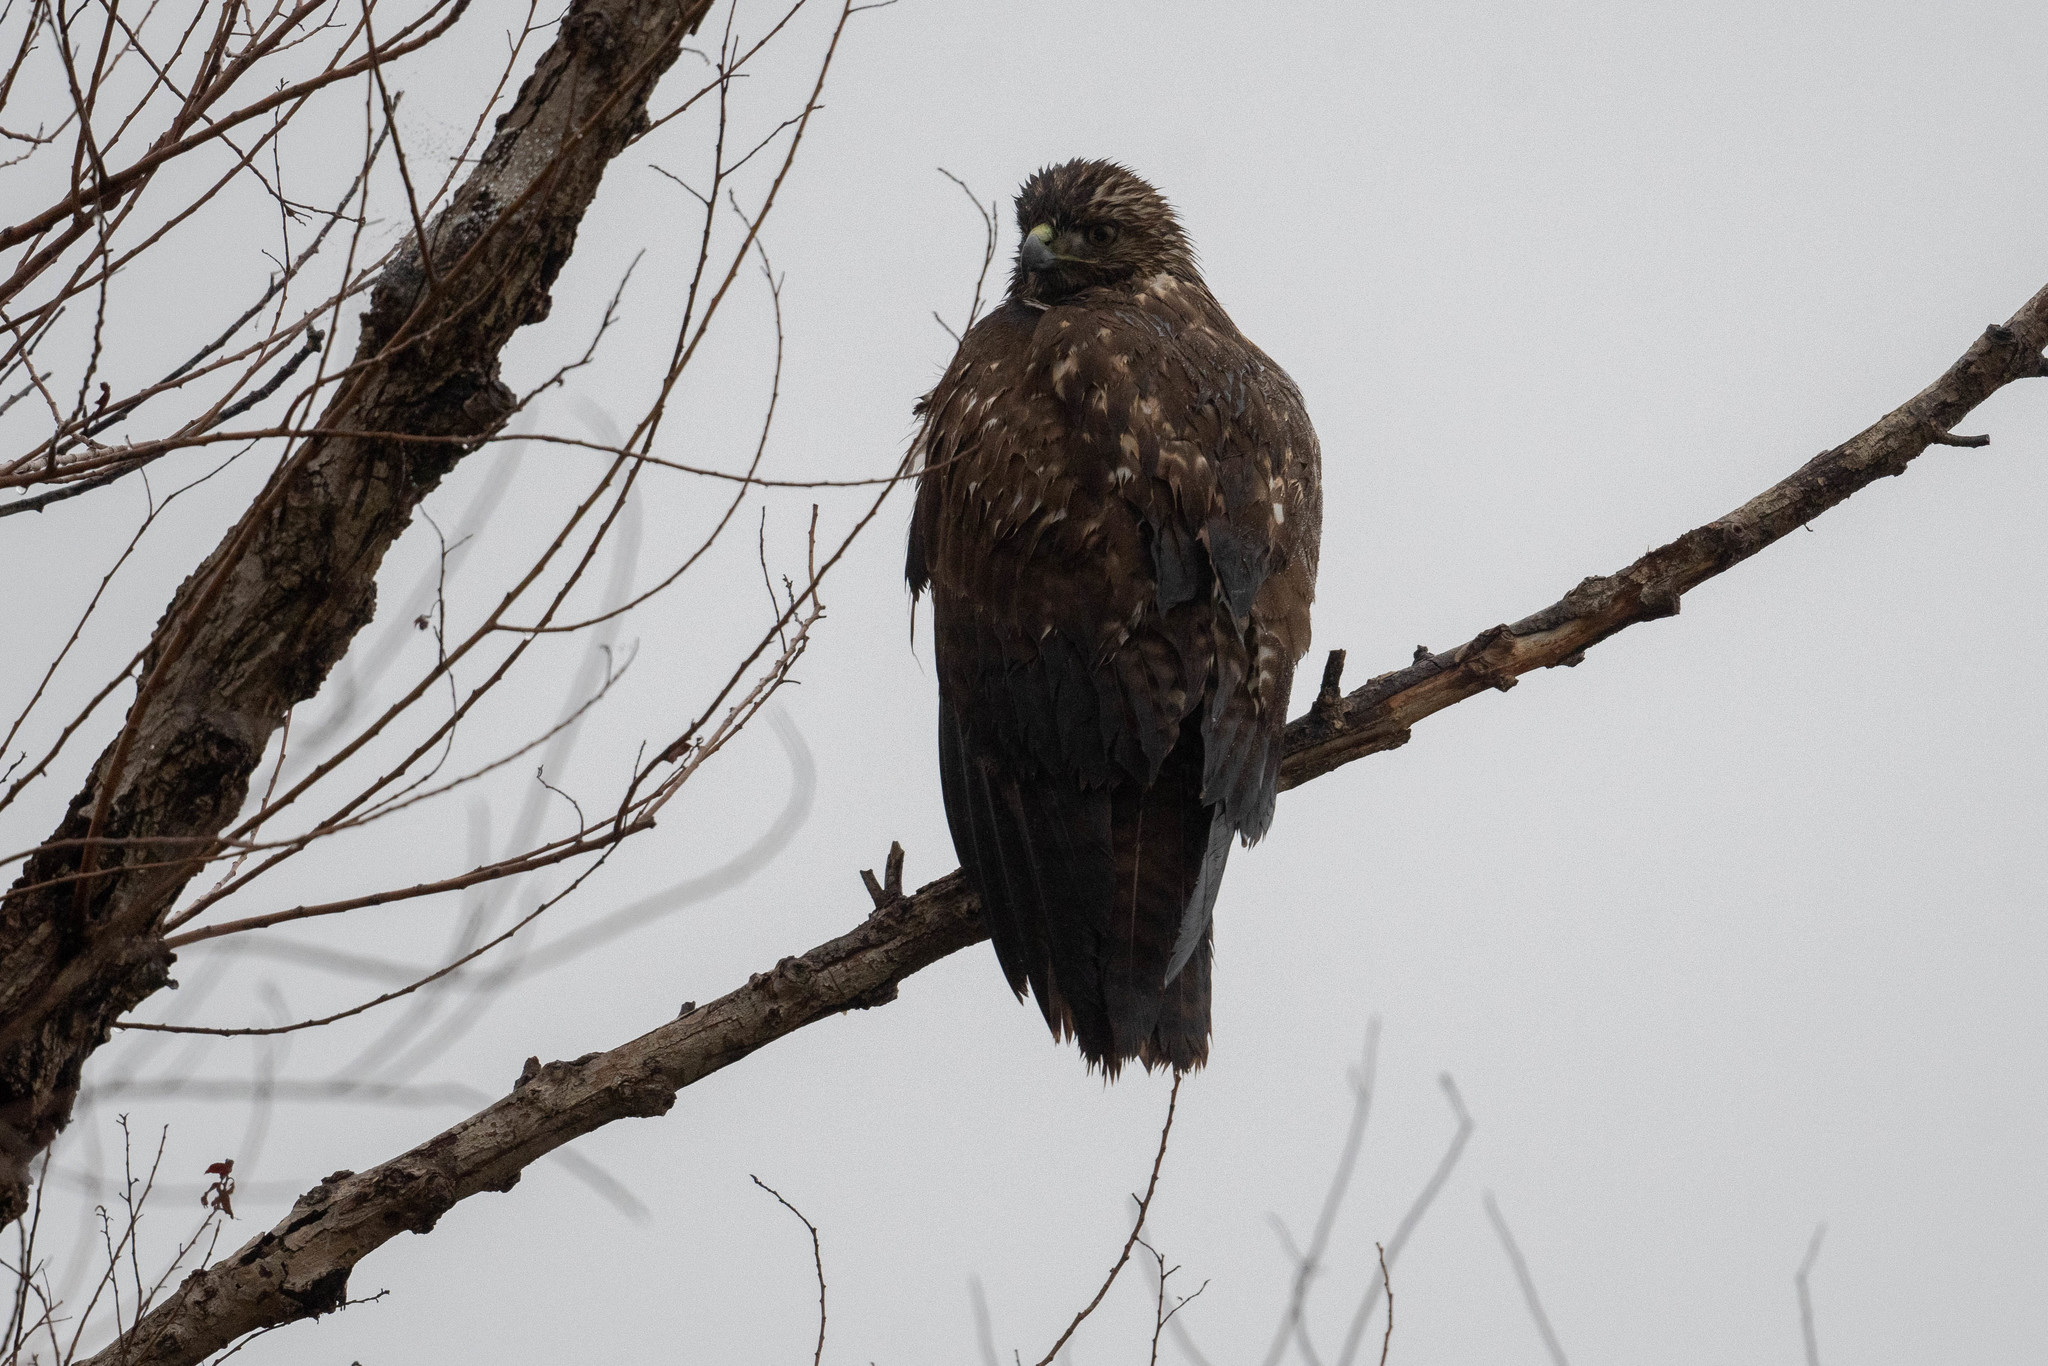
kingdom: Animalia
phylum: Chordata
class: Aves
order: Accipitriformes
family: Accipitridae
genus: Buteo
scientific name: Buteo jamaicensis
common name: Red-tailed hawk
